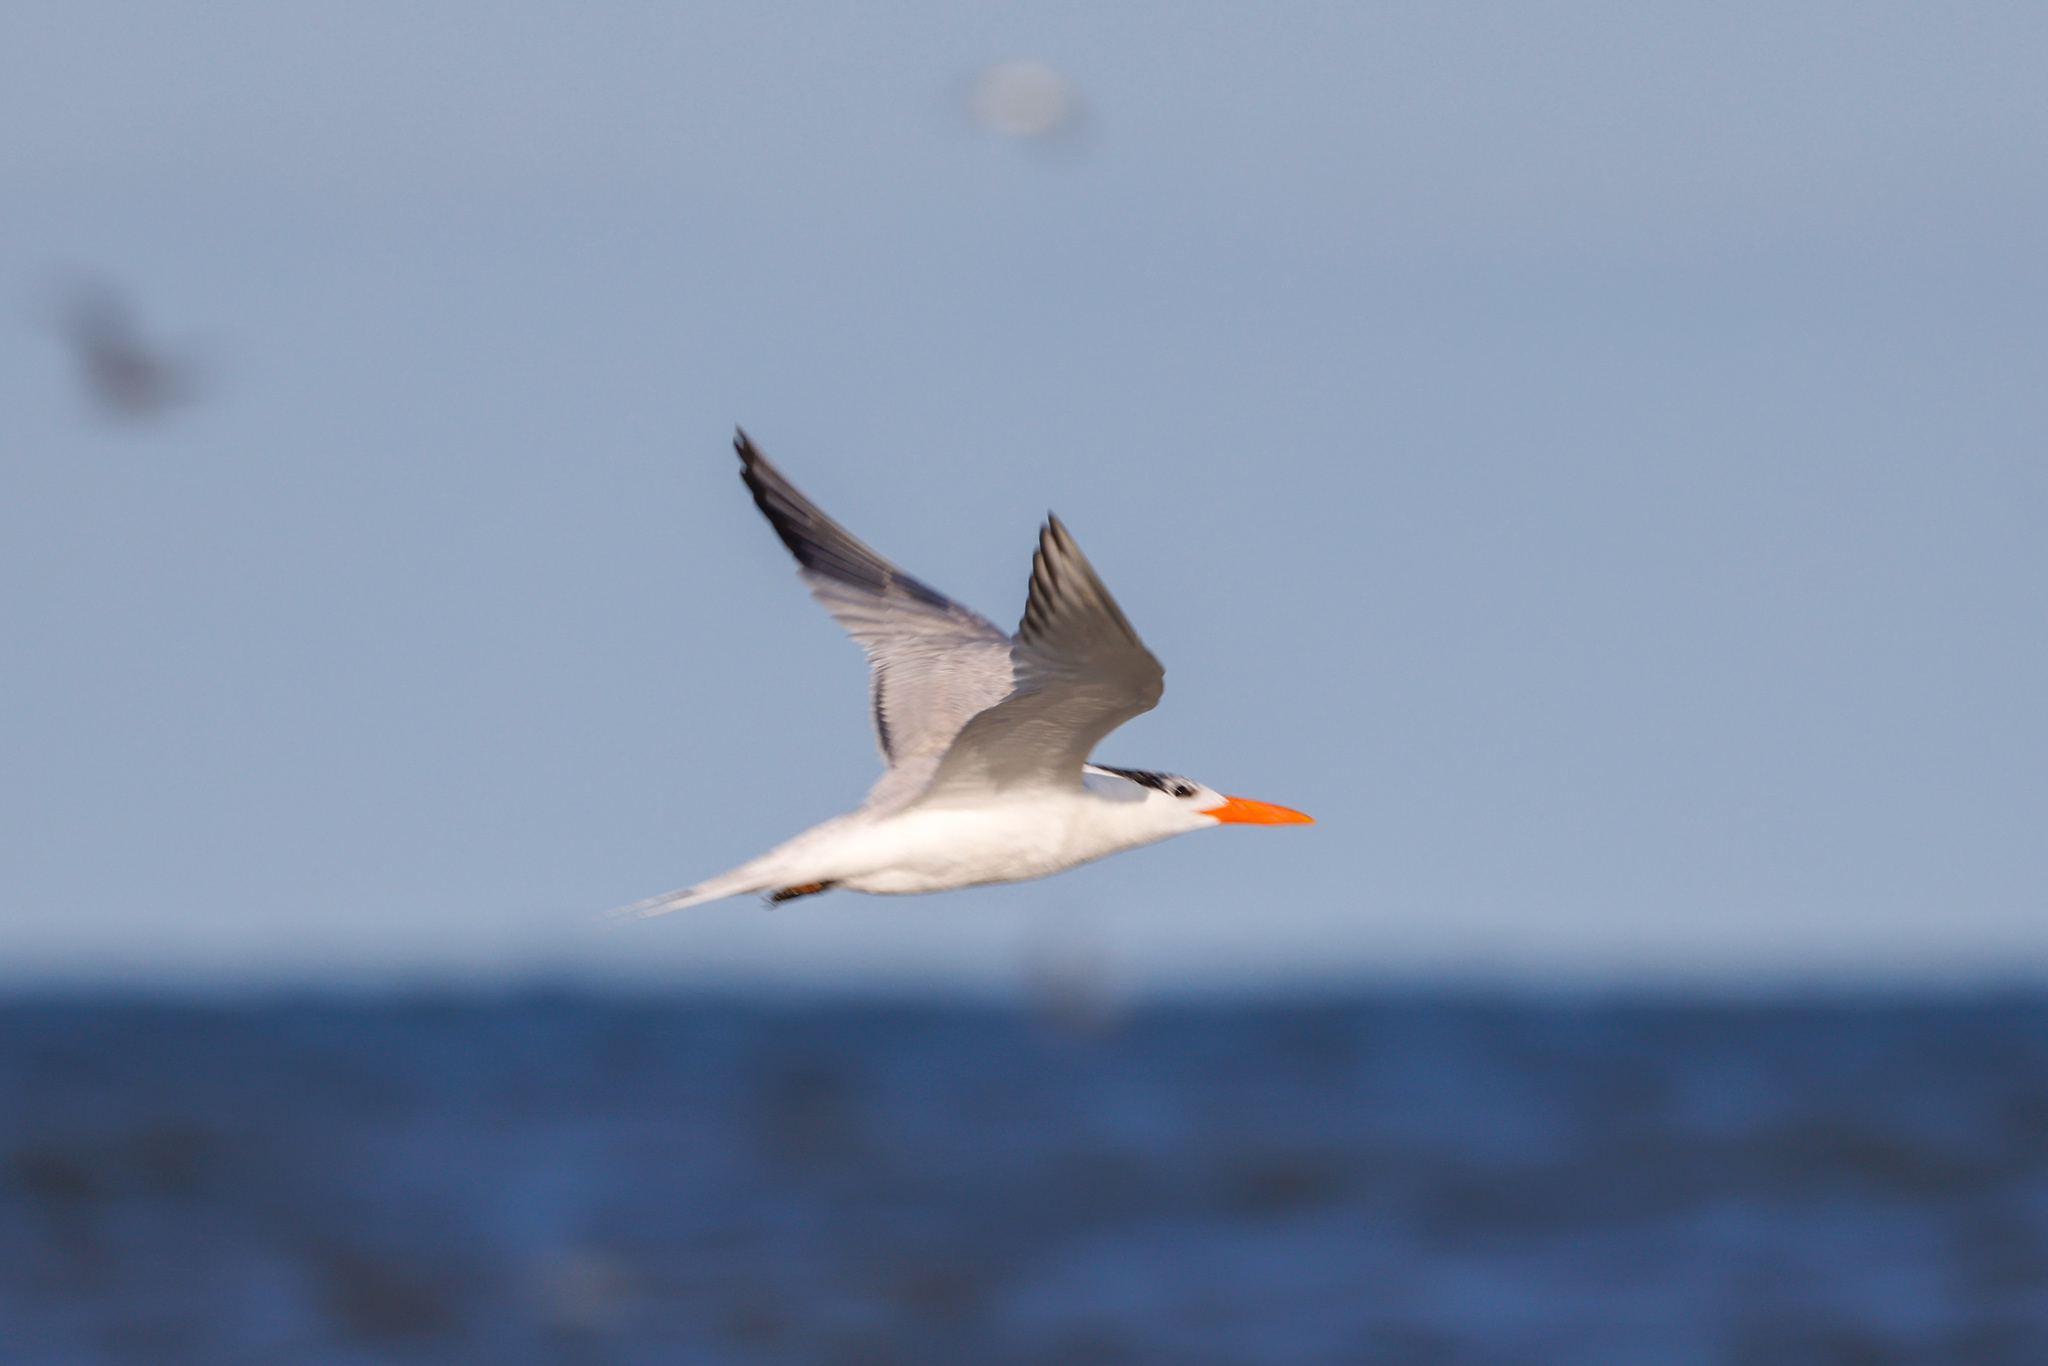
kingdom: Animalia
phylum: Chordata
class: Aves
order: Charadriiformes
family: Laridae
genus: Thalasseus
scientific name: Thalasseus maximus
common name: Royal tern
